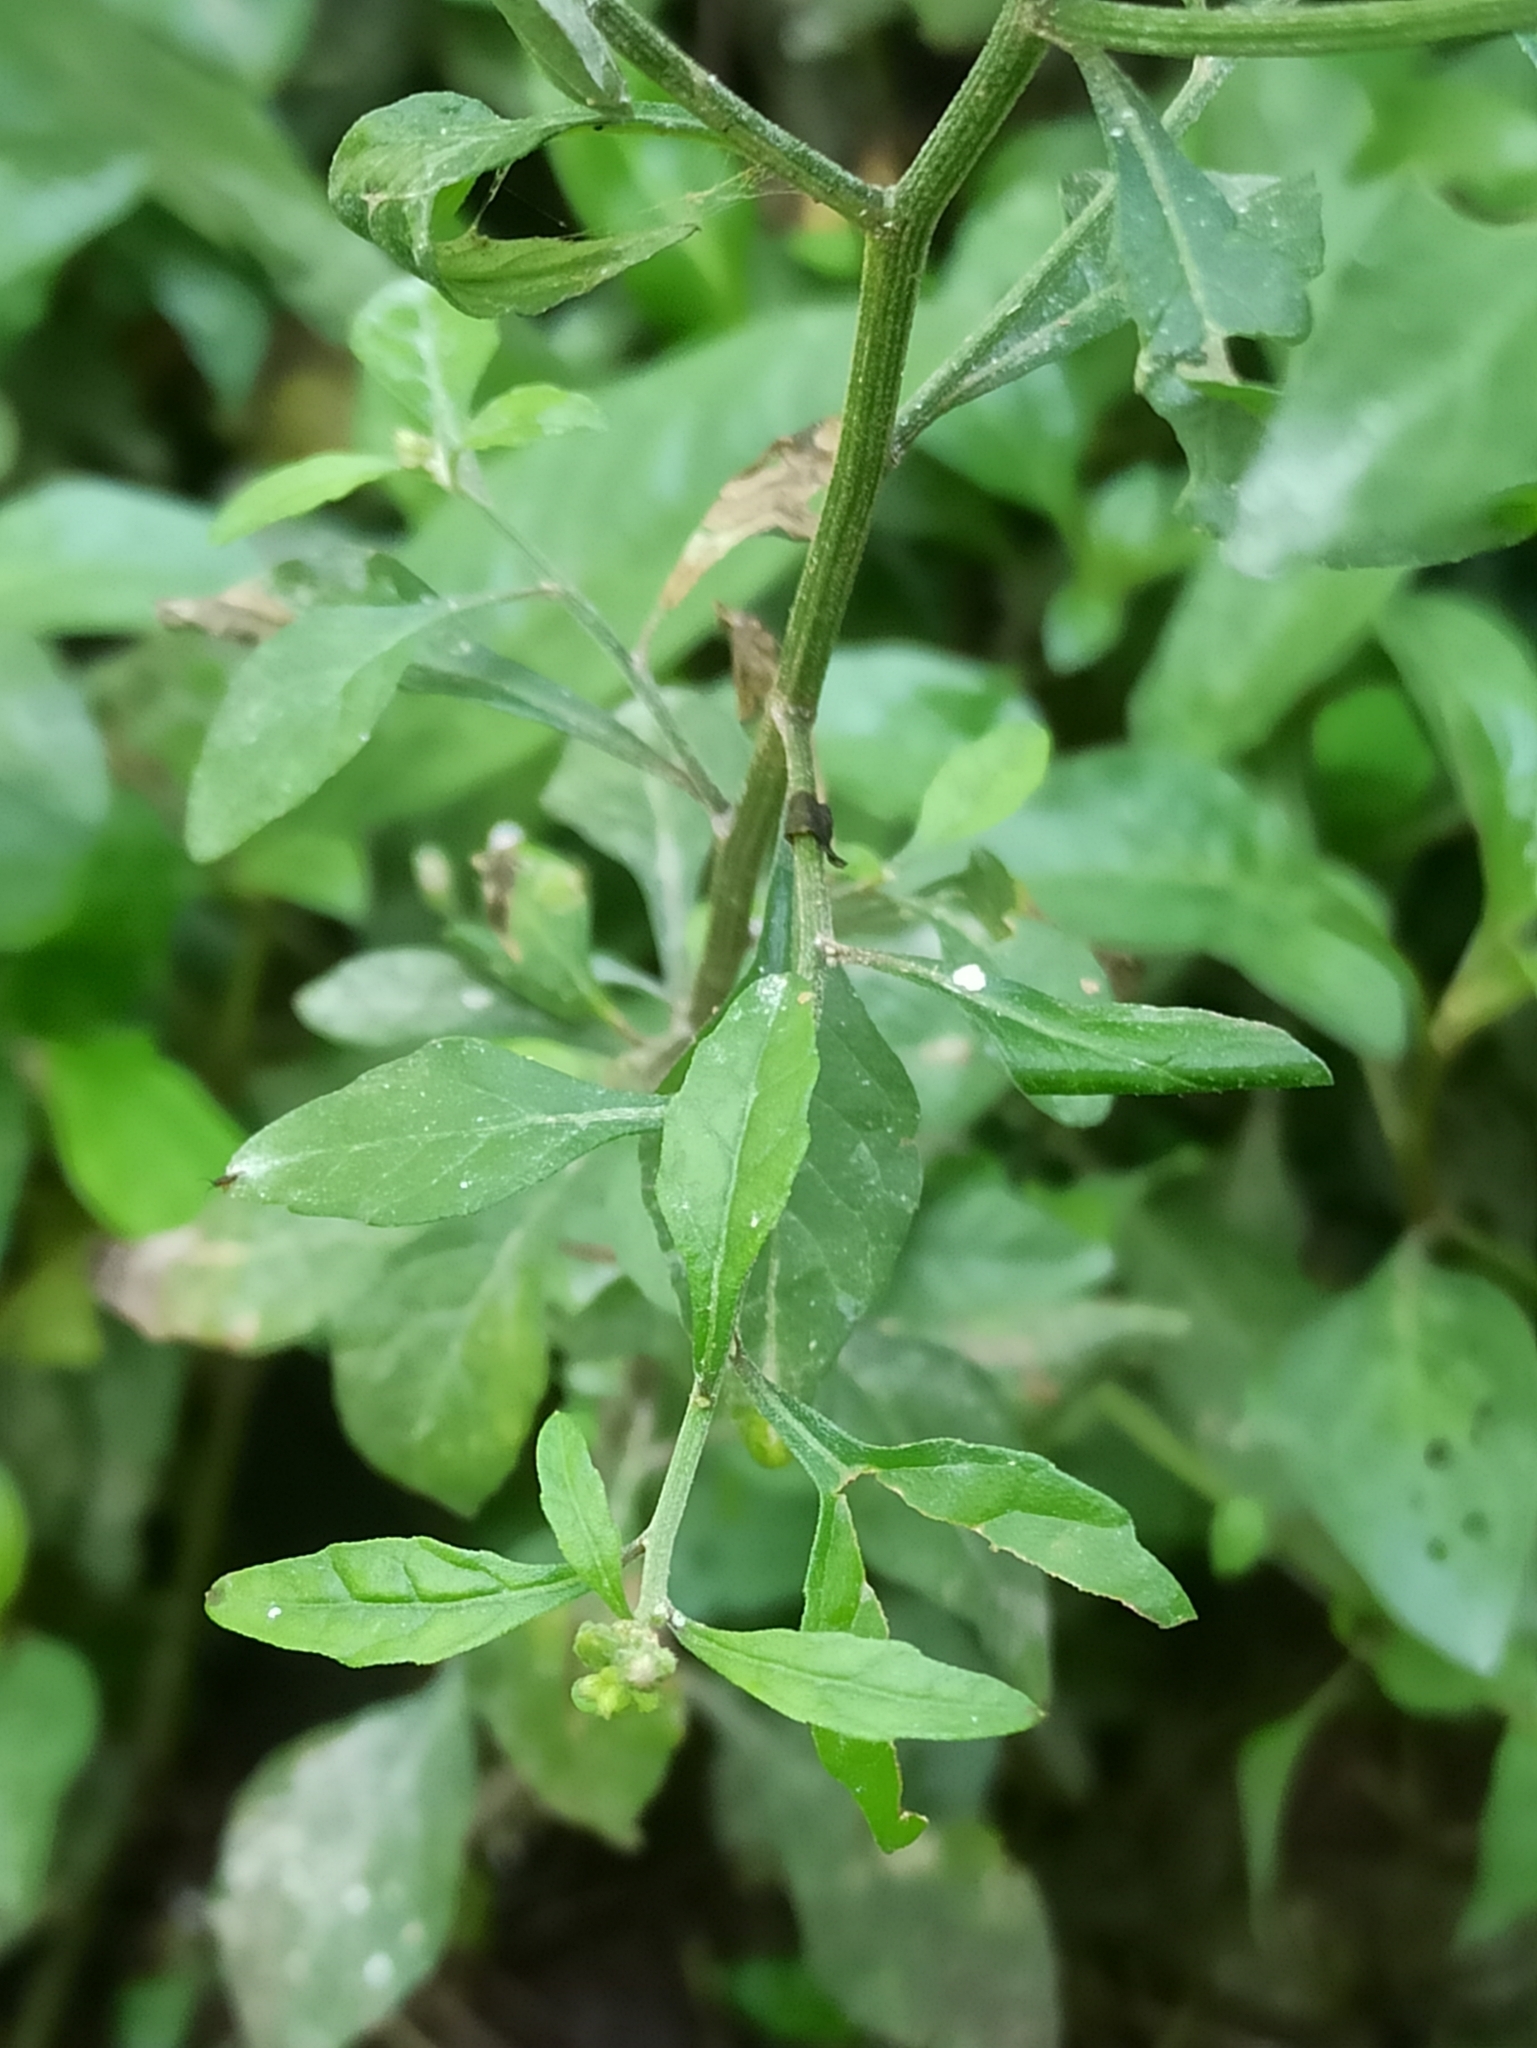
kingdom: Plantae
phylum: Tracheophyta
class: Magnoliopsida
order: Asterales
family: Asteraceae
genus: Cyanthillium
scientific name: Cyanthillium cinereum
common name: Little ironweed
